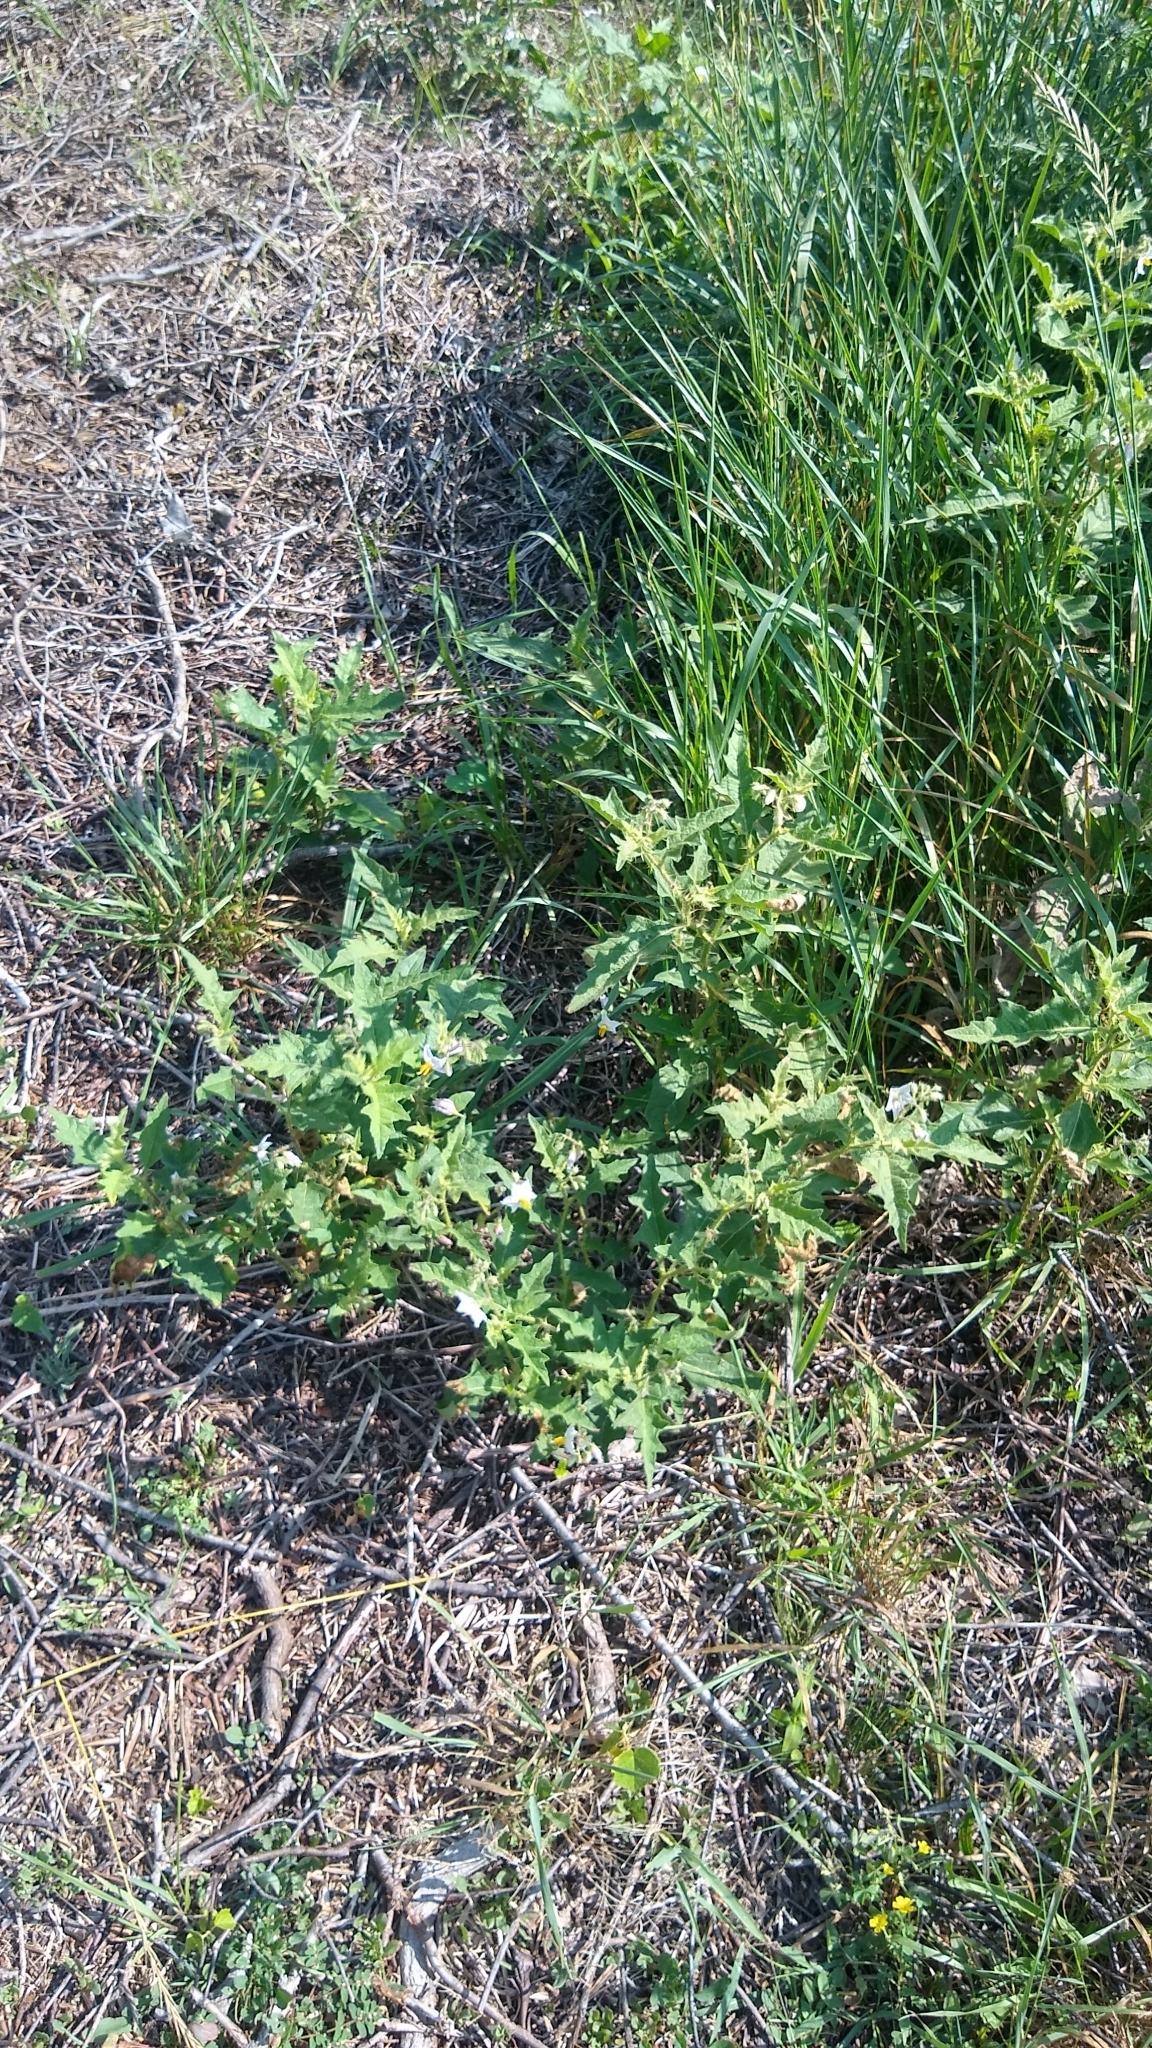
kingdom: Plantae
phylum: Tracheophyta
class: Magnoliopsida
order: Solanales
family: Solanaceae
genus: Solanum
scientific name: Solanum carolinense
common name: Horse-nettle
